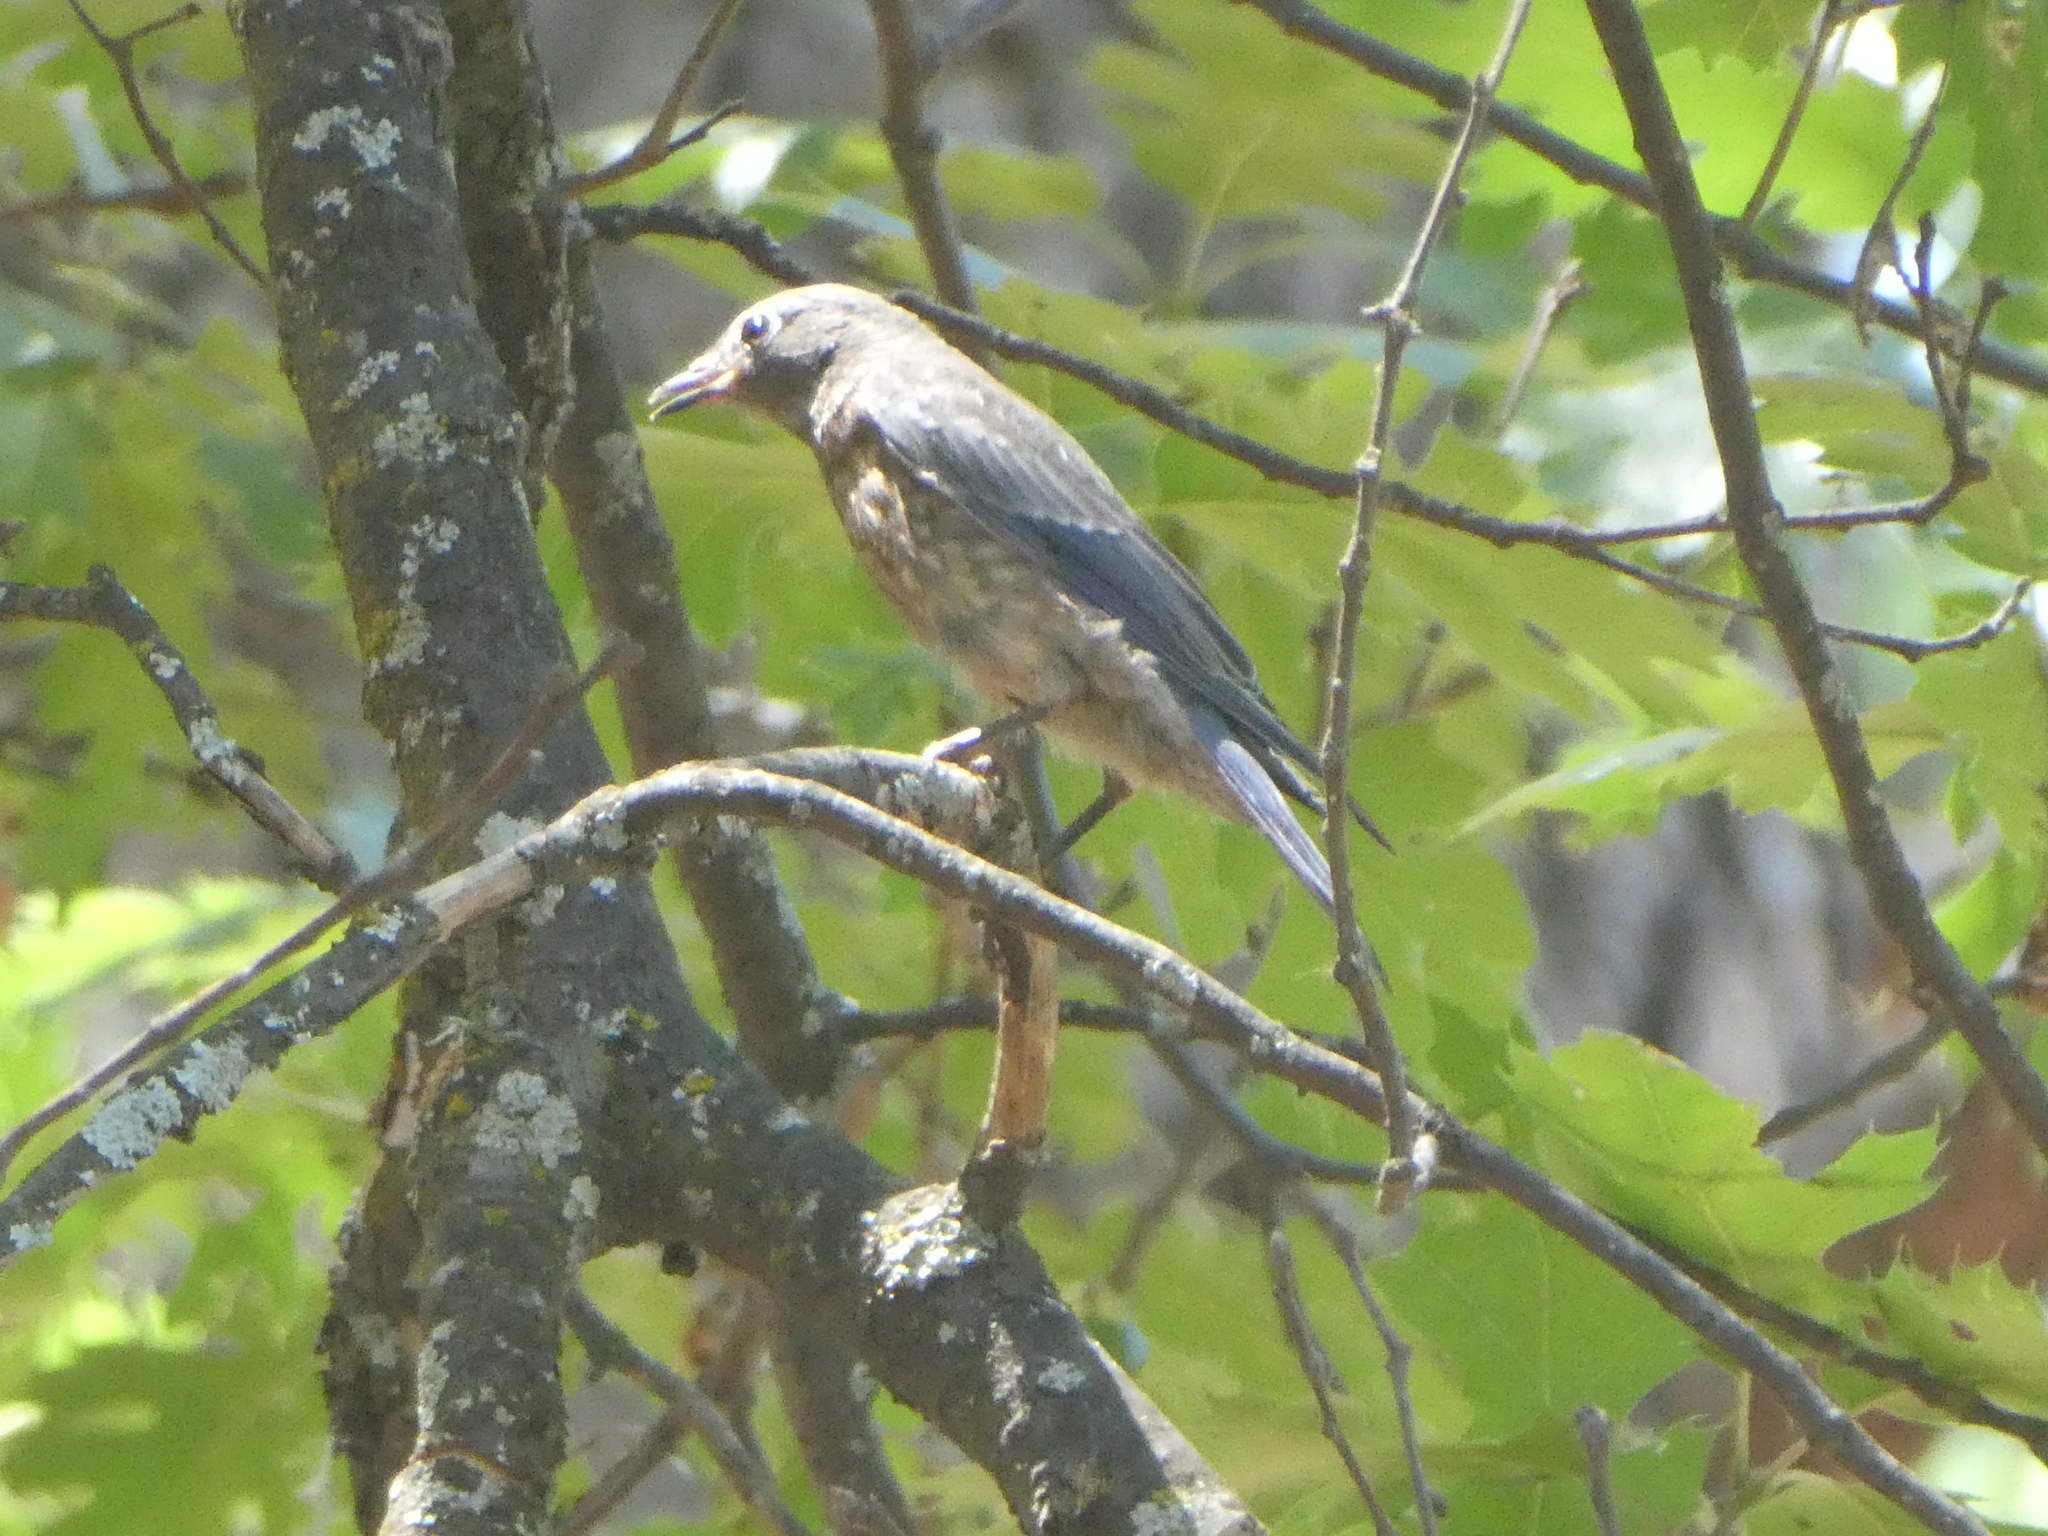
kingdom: Animalia
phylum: Chordata
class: Aves
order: Passeriformes
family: Turdidae
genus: Sialia
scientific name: Sialia mexicana
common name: Western bluebird
